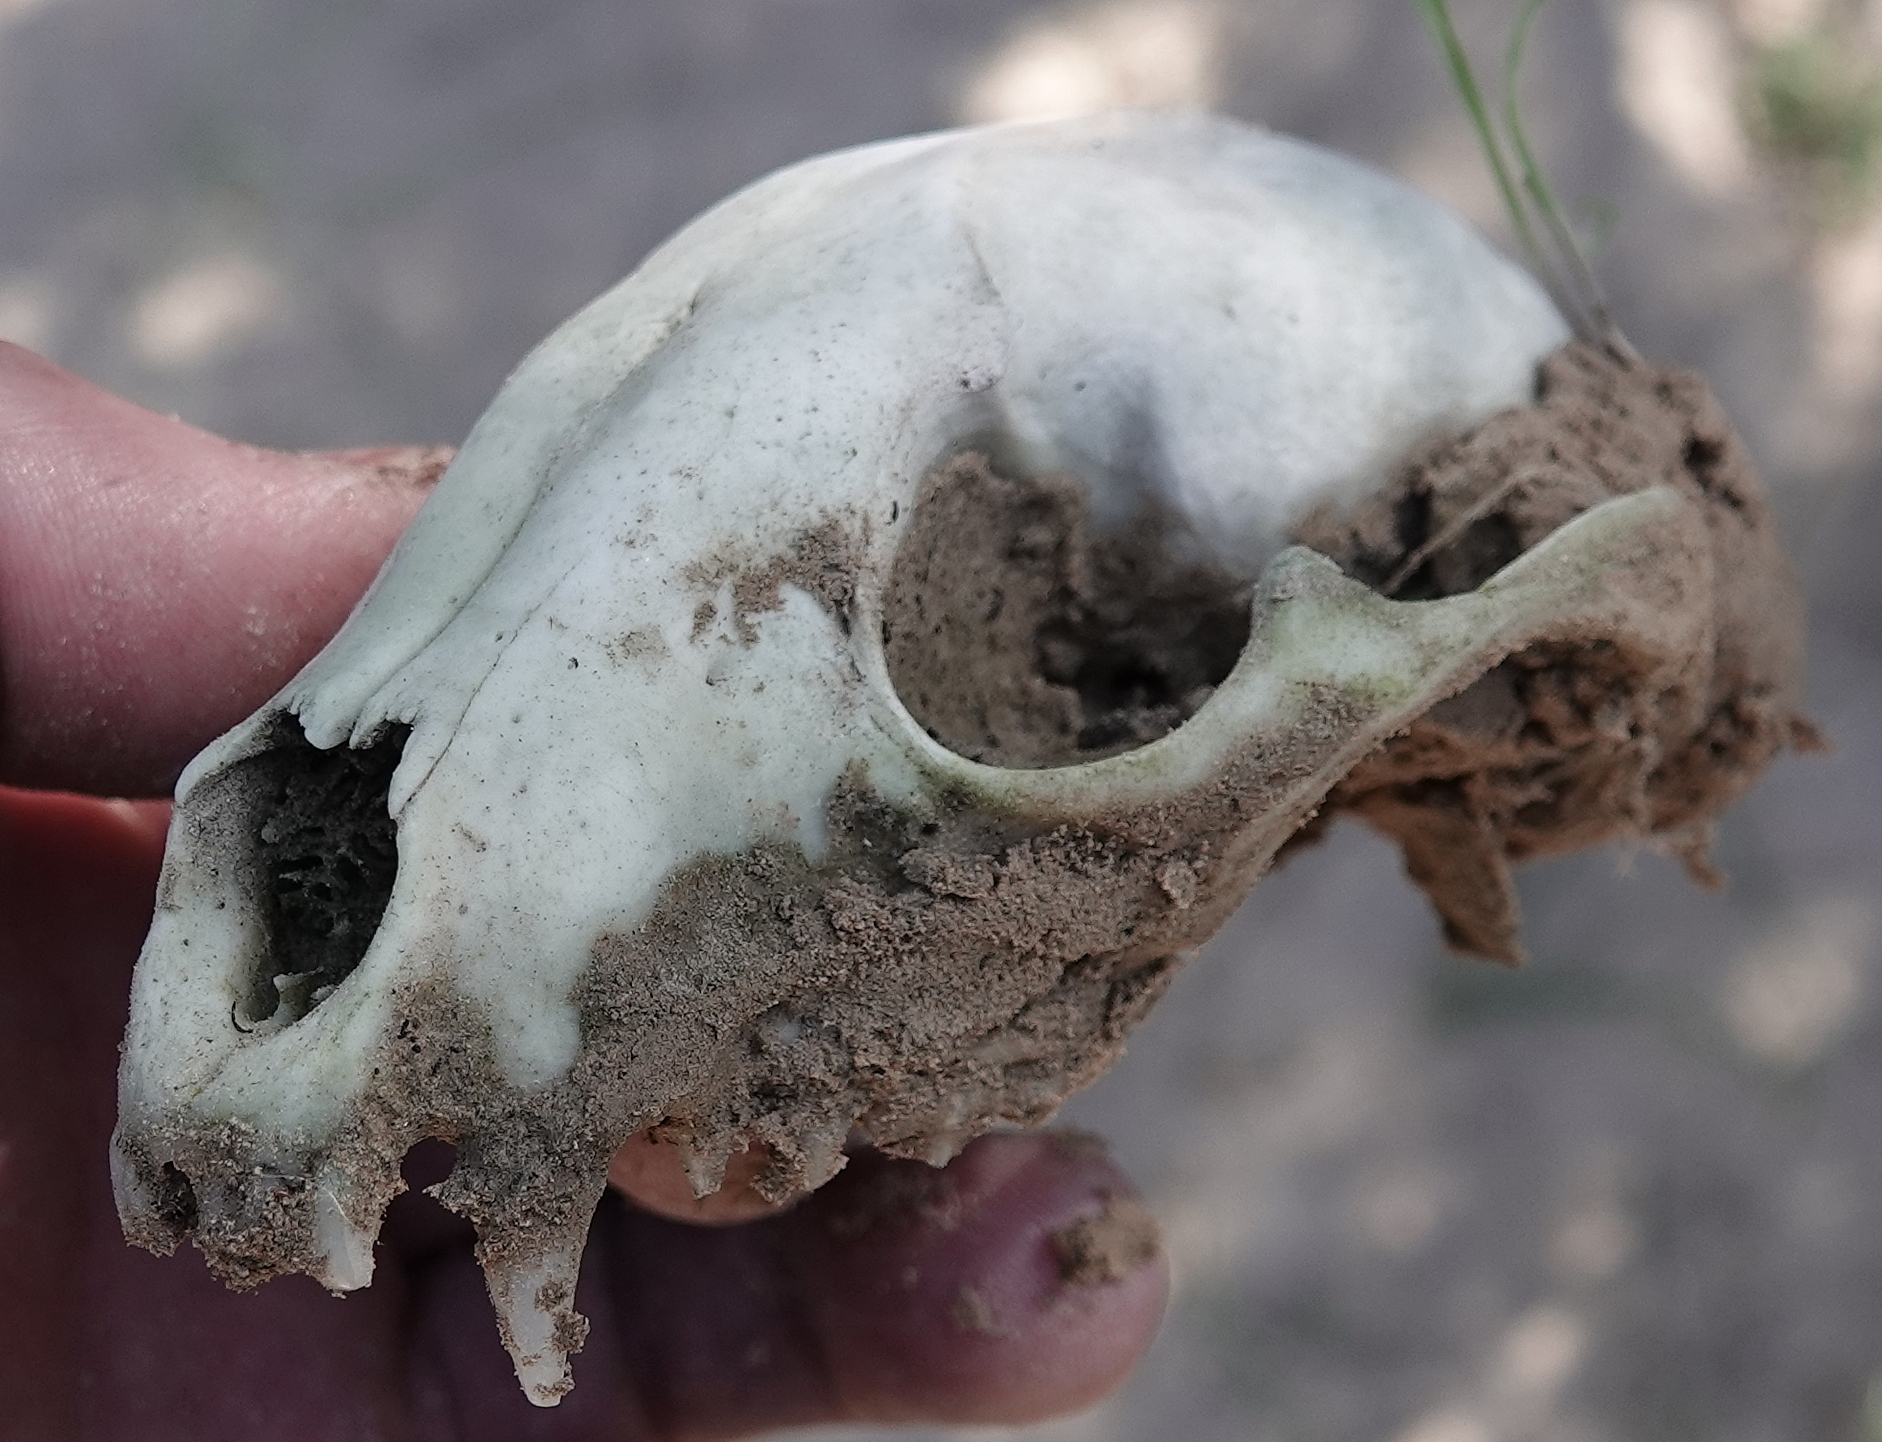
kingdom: Animalia
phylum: Chordata
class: Mammalia
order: Carnivora
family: Procyonidae
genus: Procyon
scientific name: Procyon lotor
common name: Raccoon
